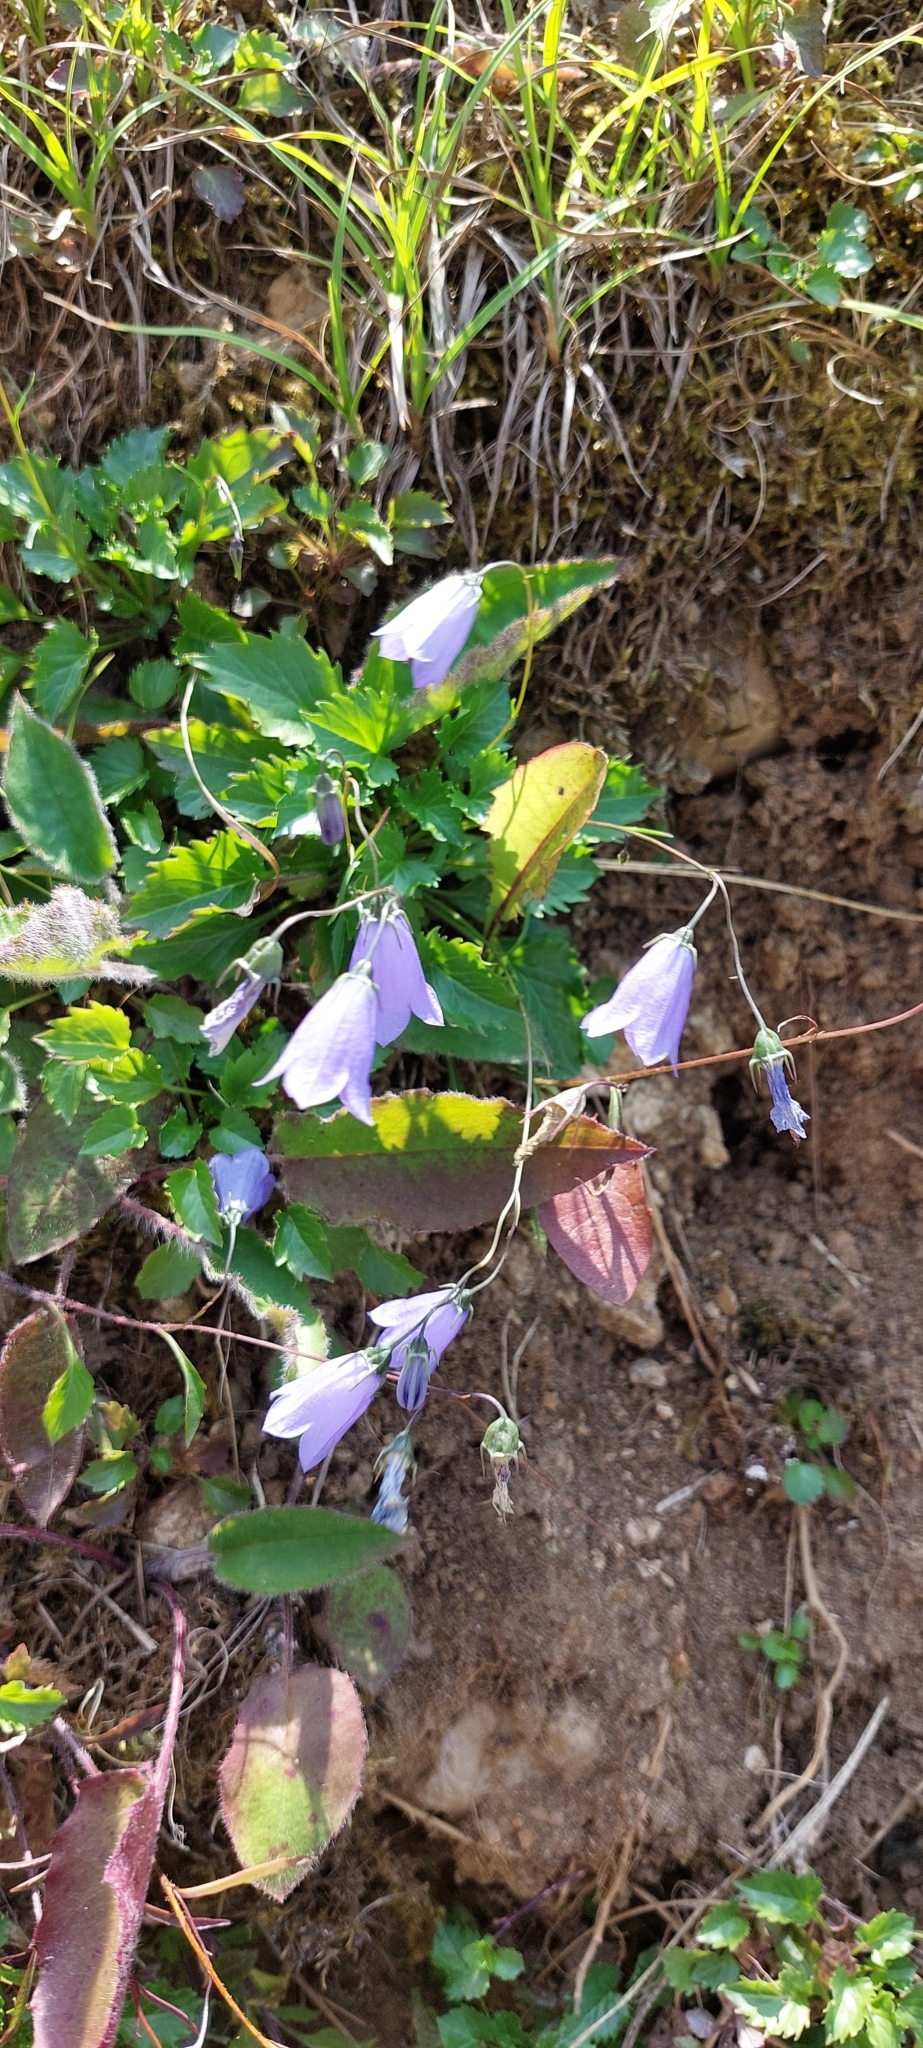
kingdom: Plantae
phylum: Tracheophyta
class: Magnoliopsida
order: Asterales
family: Campanulaceae
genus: Campanula
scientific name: Campanula cochleariifolia
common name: Fairies'-thimbles
